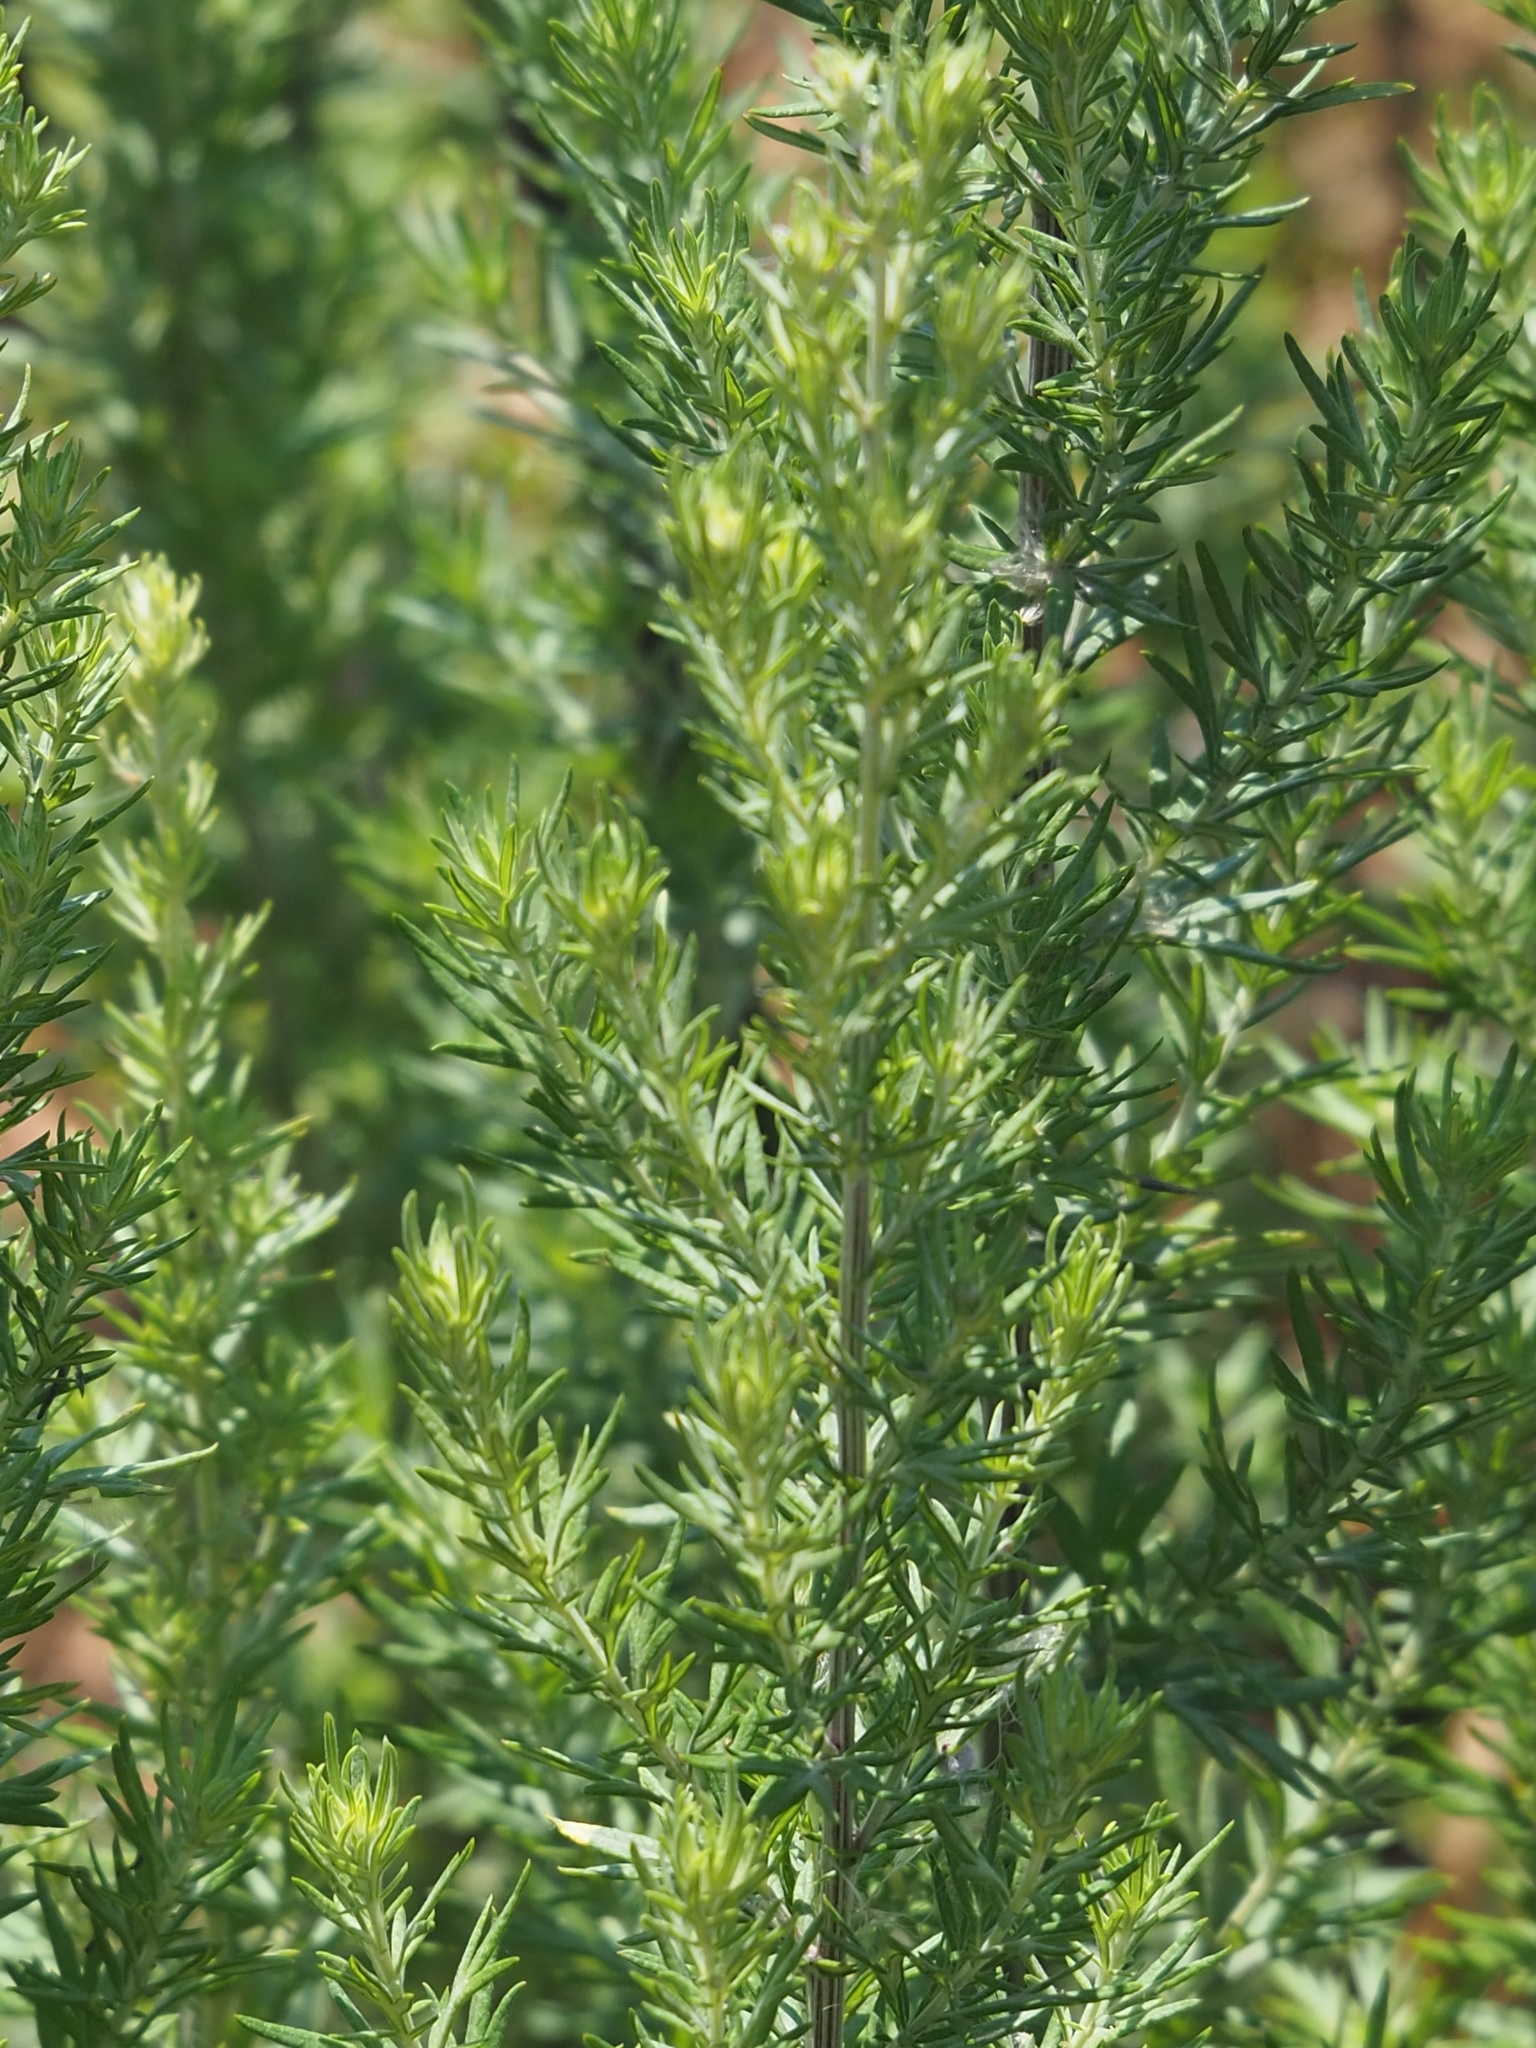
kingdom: Plantae
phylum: Tracheophyta
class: Magnoliopsida
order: Asterales
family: Asteraceae
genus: Artemisia
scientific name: Artemisia lancea
